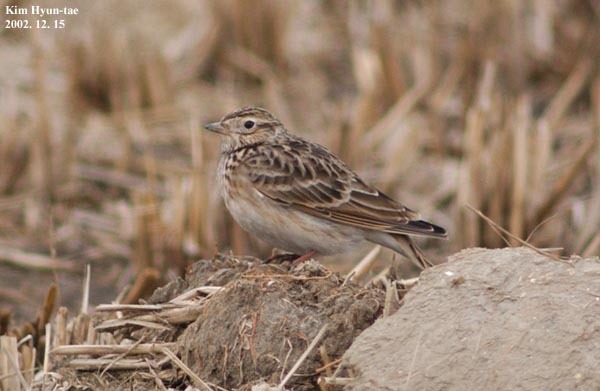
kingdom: Animalia
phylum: Chordata
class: Aves
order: Passeriformes
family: Alaudidae
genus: Alauda
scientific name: Alauda arvensis
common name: Eurasian skylark
